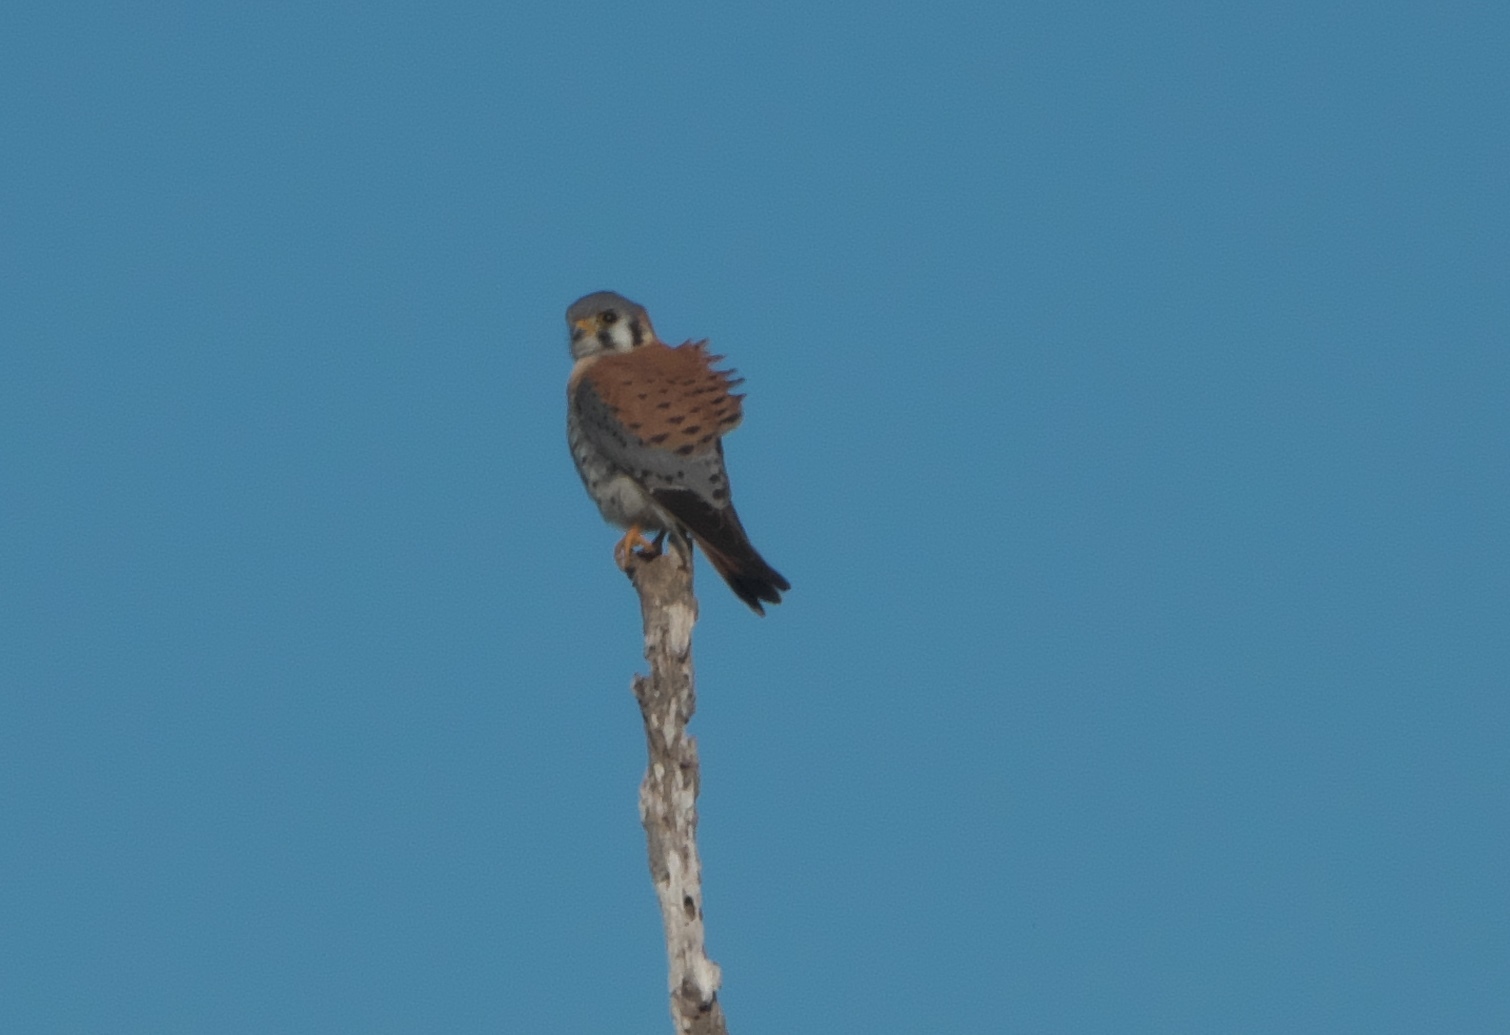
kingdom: Animalia
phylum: Chordata
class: Aves
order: Falconiformes
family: Falconidae
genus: Falco
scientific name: Falco sparverius
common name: American kestrel
